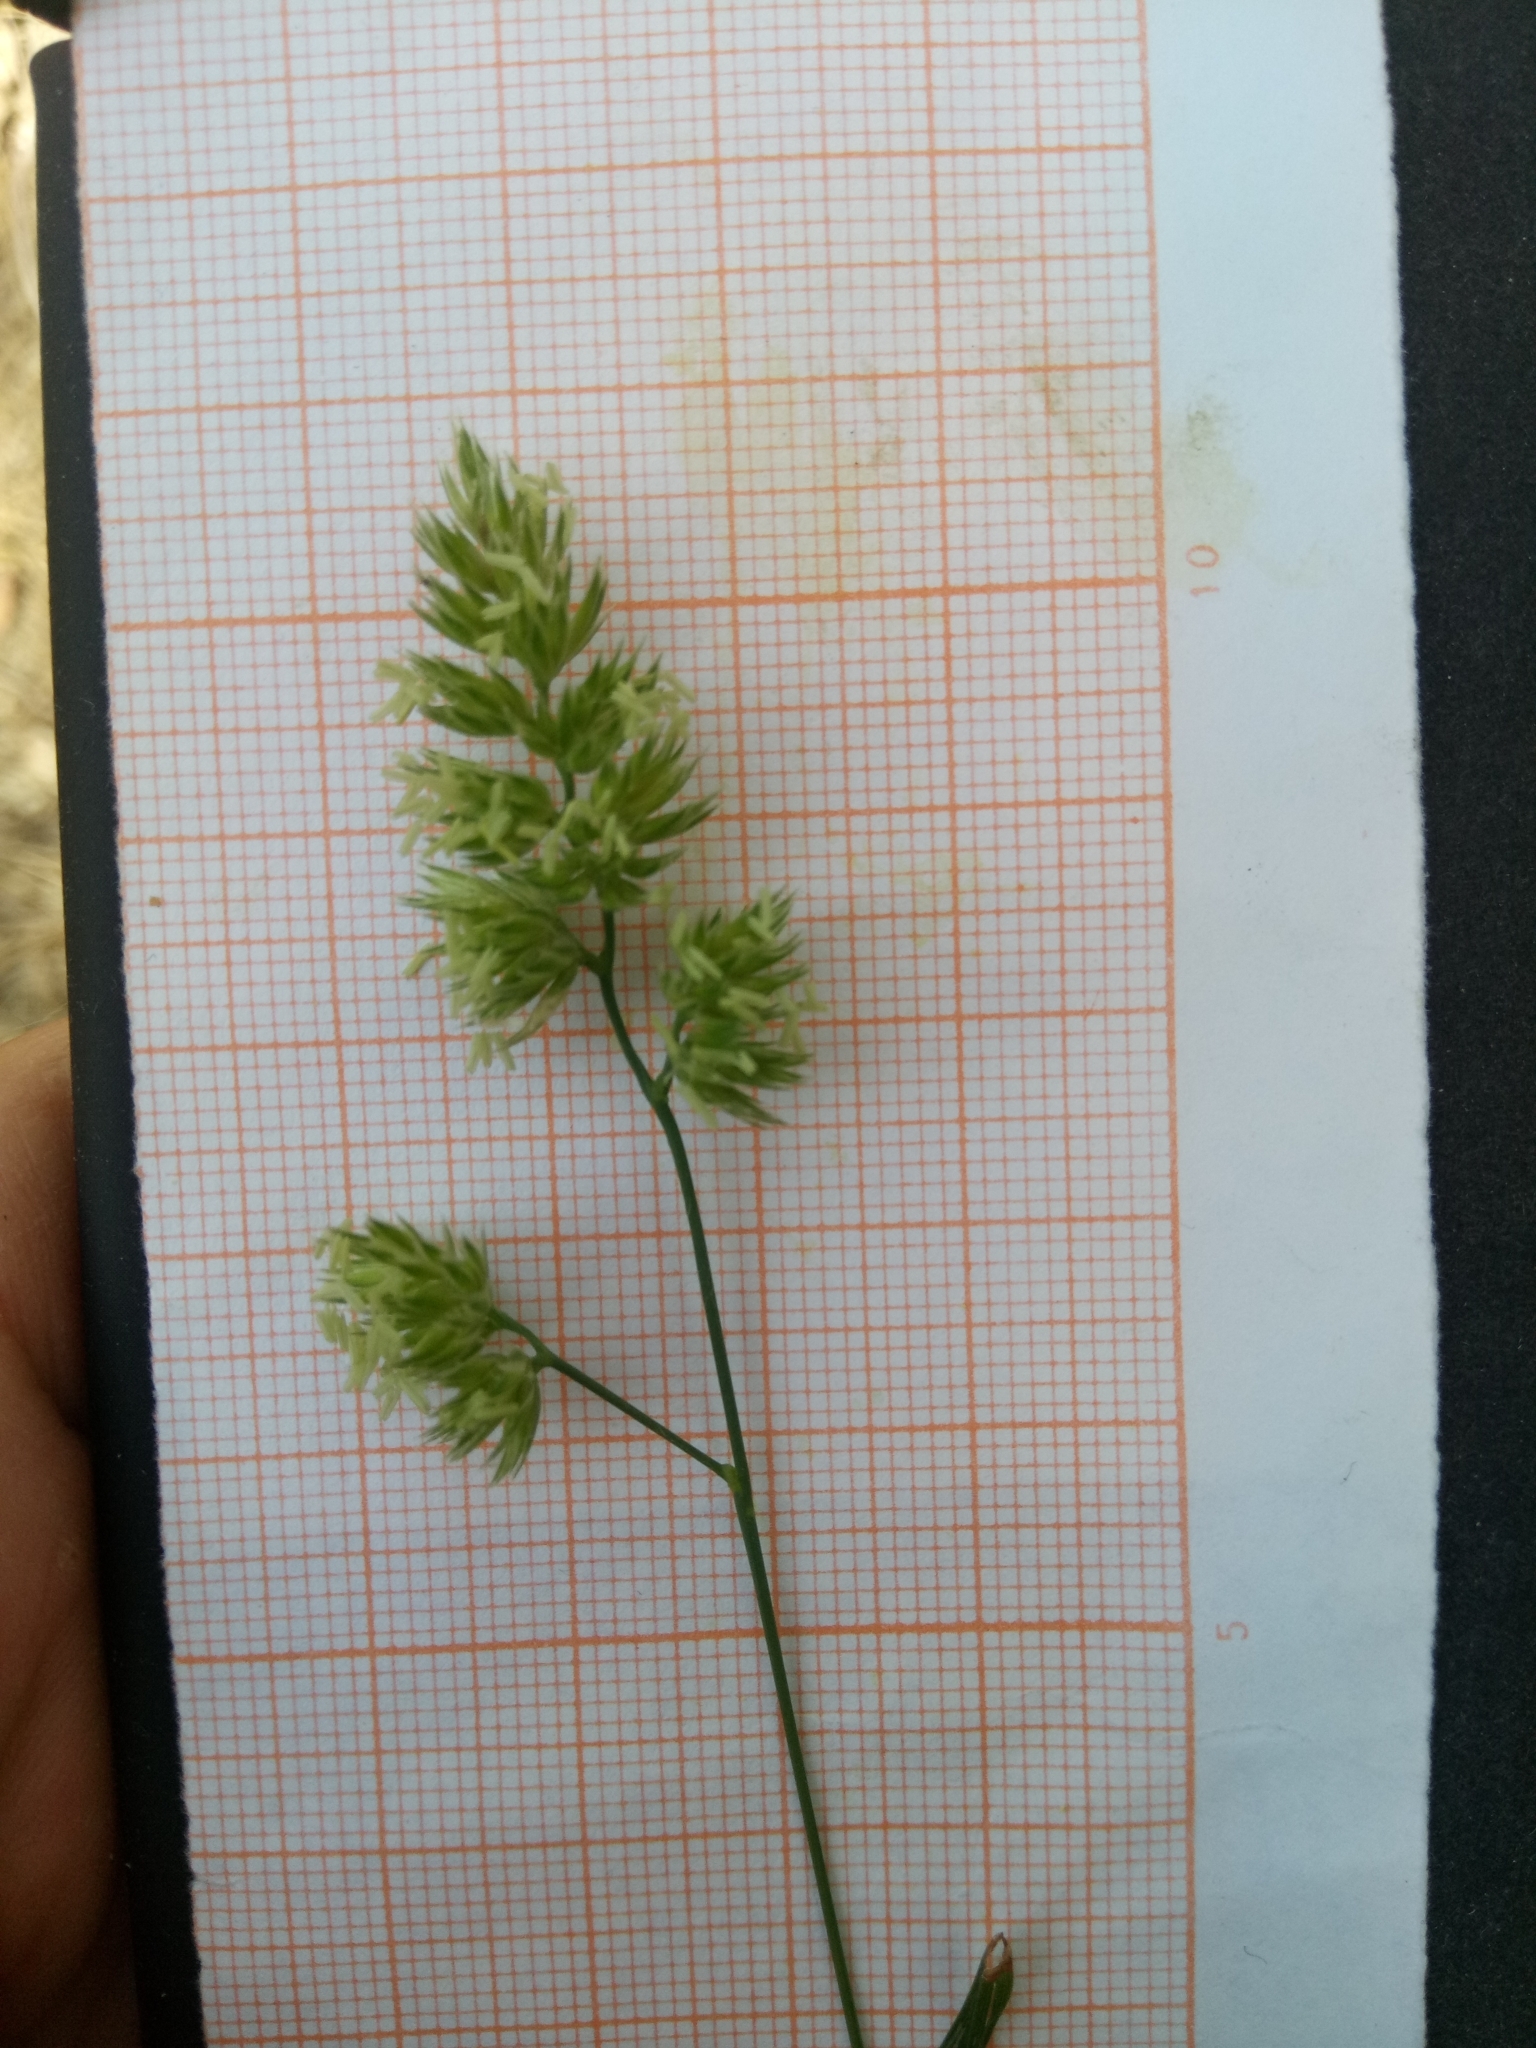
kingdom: Plantae
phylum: Tracheophyta
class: Liliopsida
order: Poales
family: Poaceae
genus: Dactylis
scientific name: Dactylis glomerata
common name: Orchardgrass
